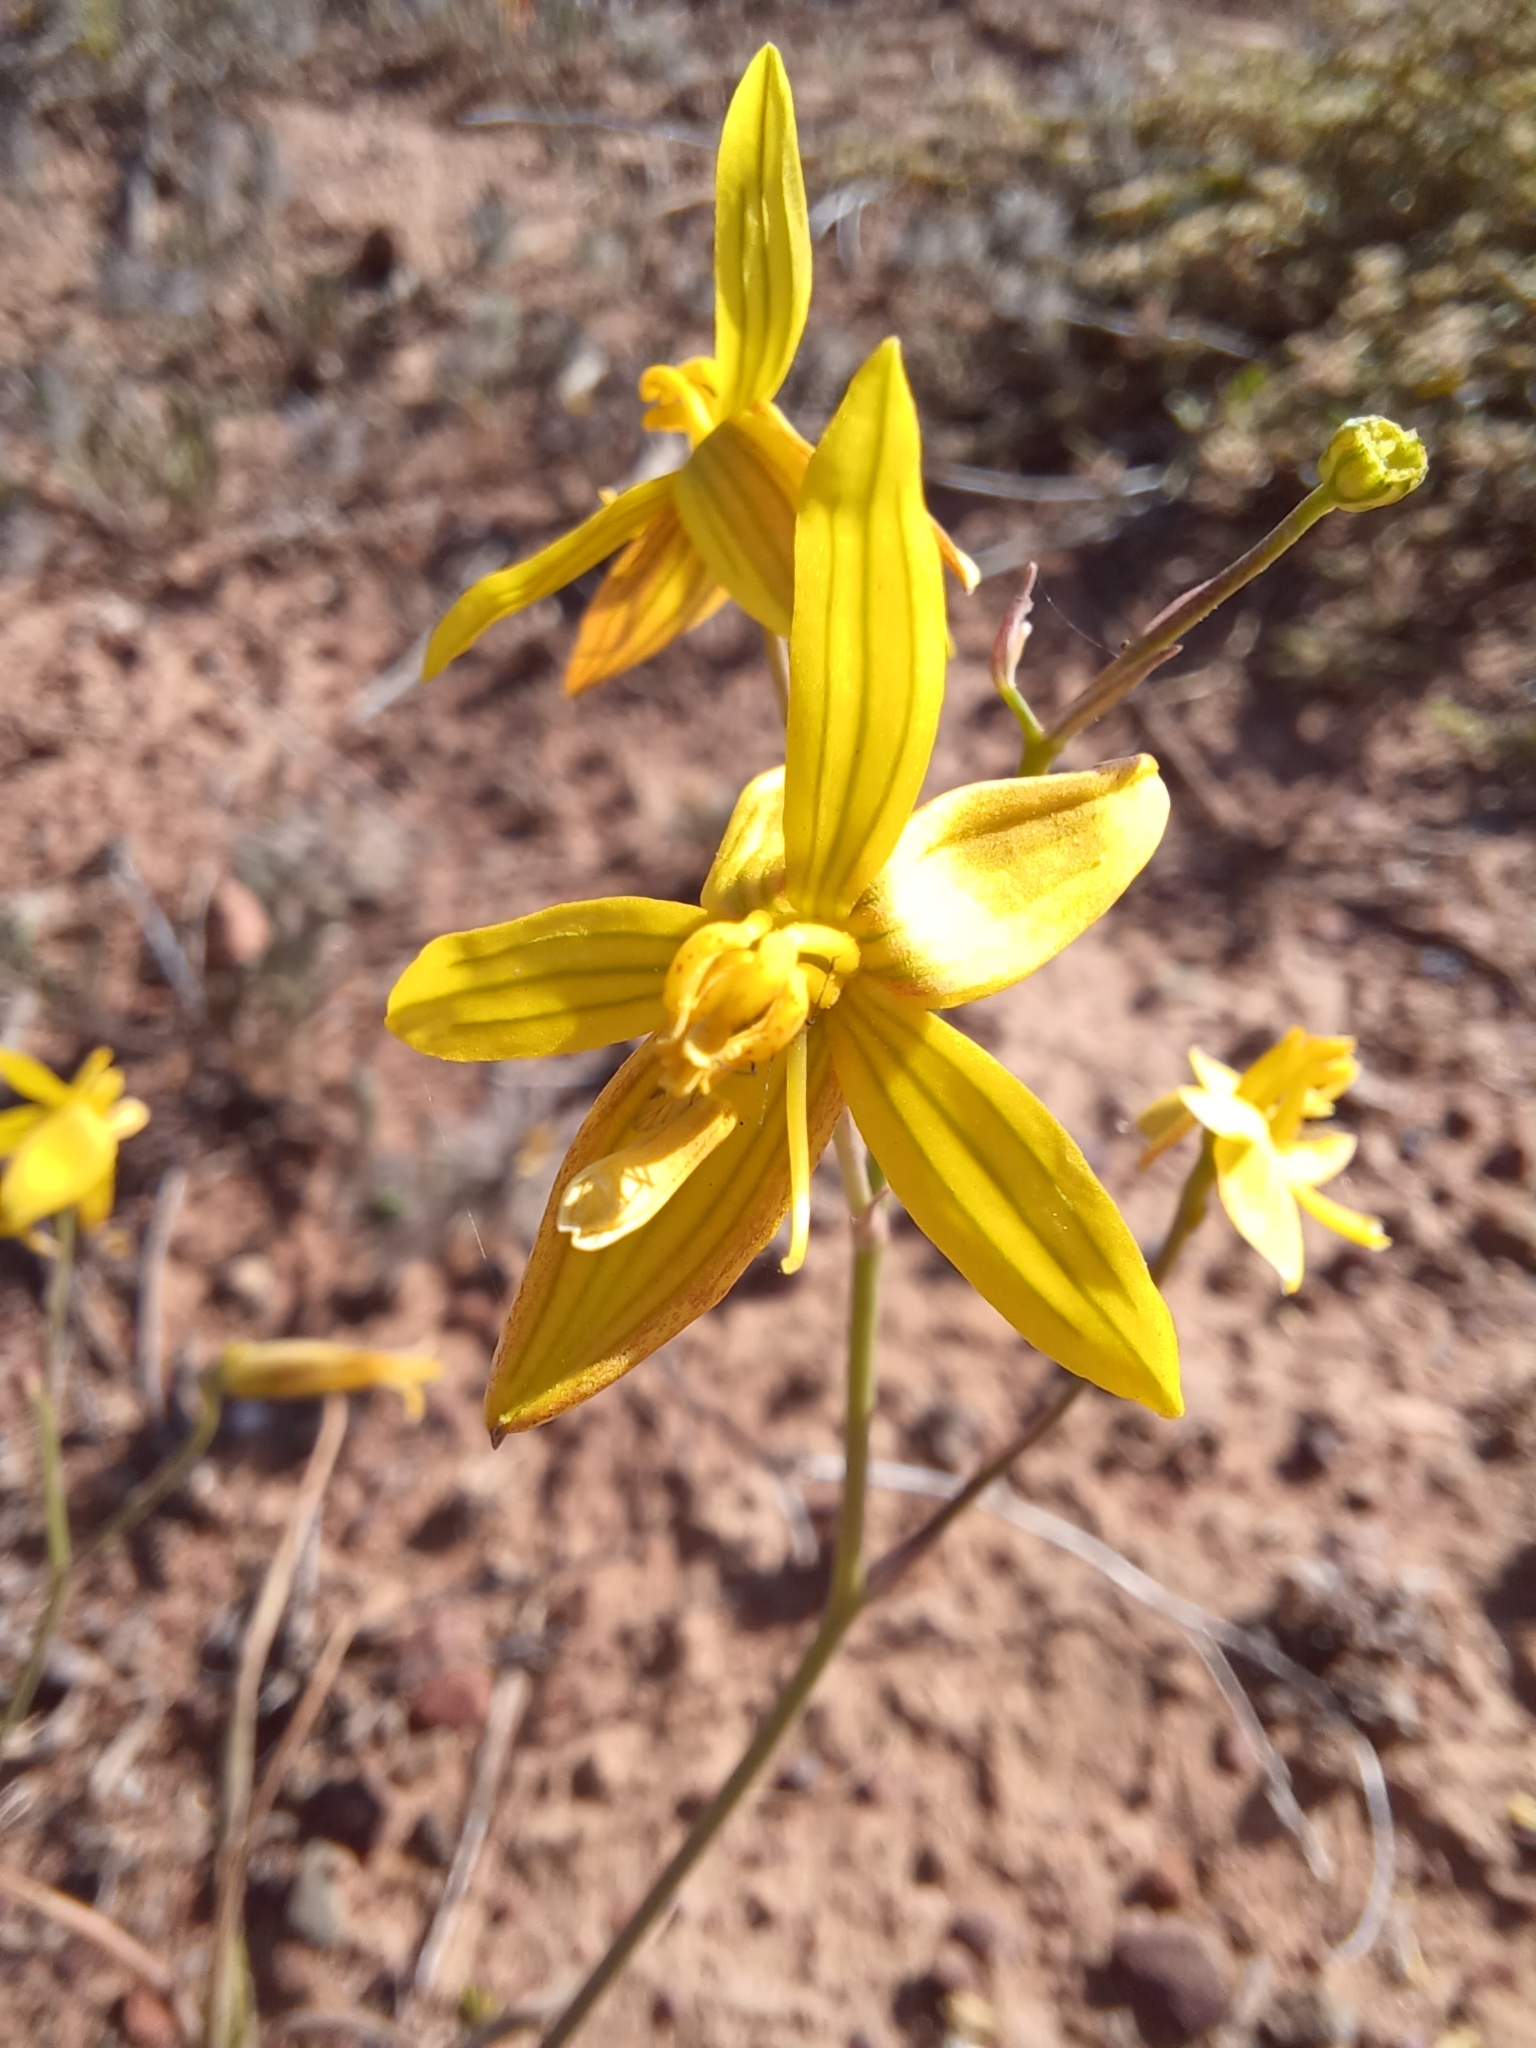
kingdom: Plantae
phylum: Tracheophyta
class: Liliopsida
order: Asparagales
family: Tecophilaeaceae
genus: Cyanella
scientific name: Cyanella lutea
